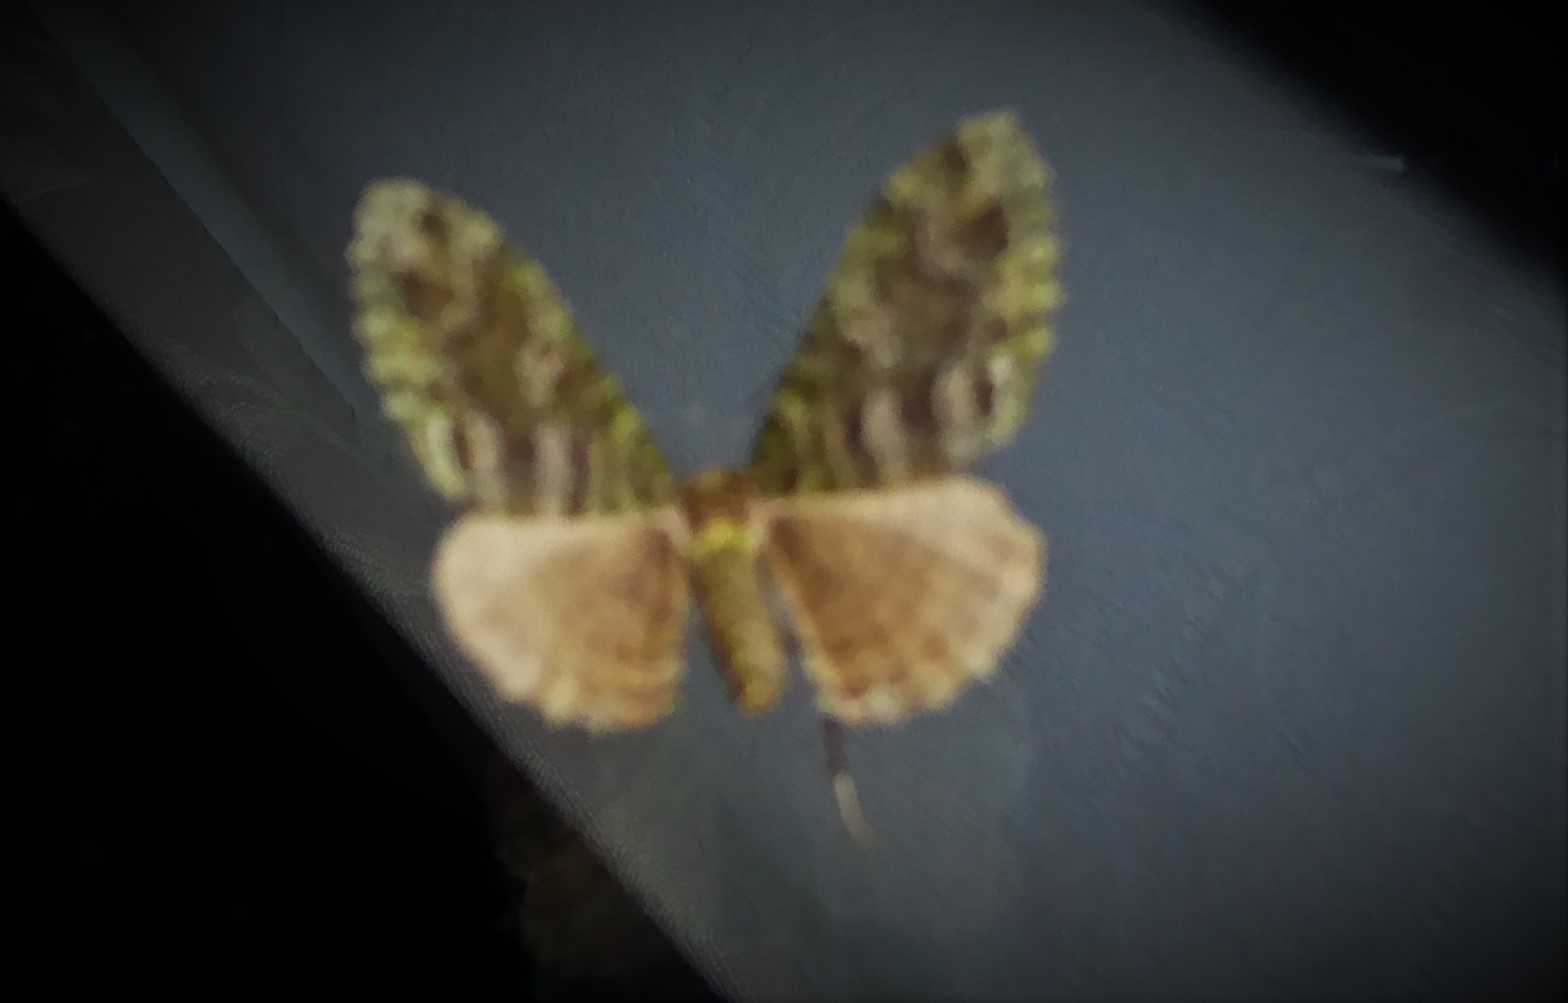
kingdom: Animalia
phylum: Arthropoda
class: Insecta
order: Lepidoptera
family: Geometridae
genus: Austrocidaria
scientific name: Austrocidaria similata
